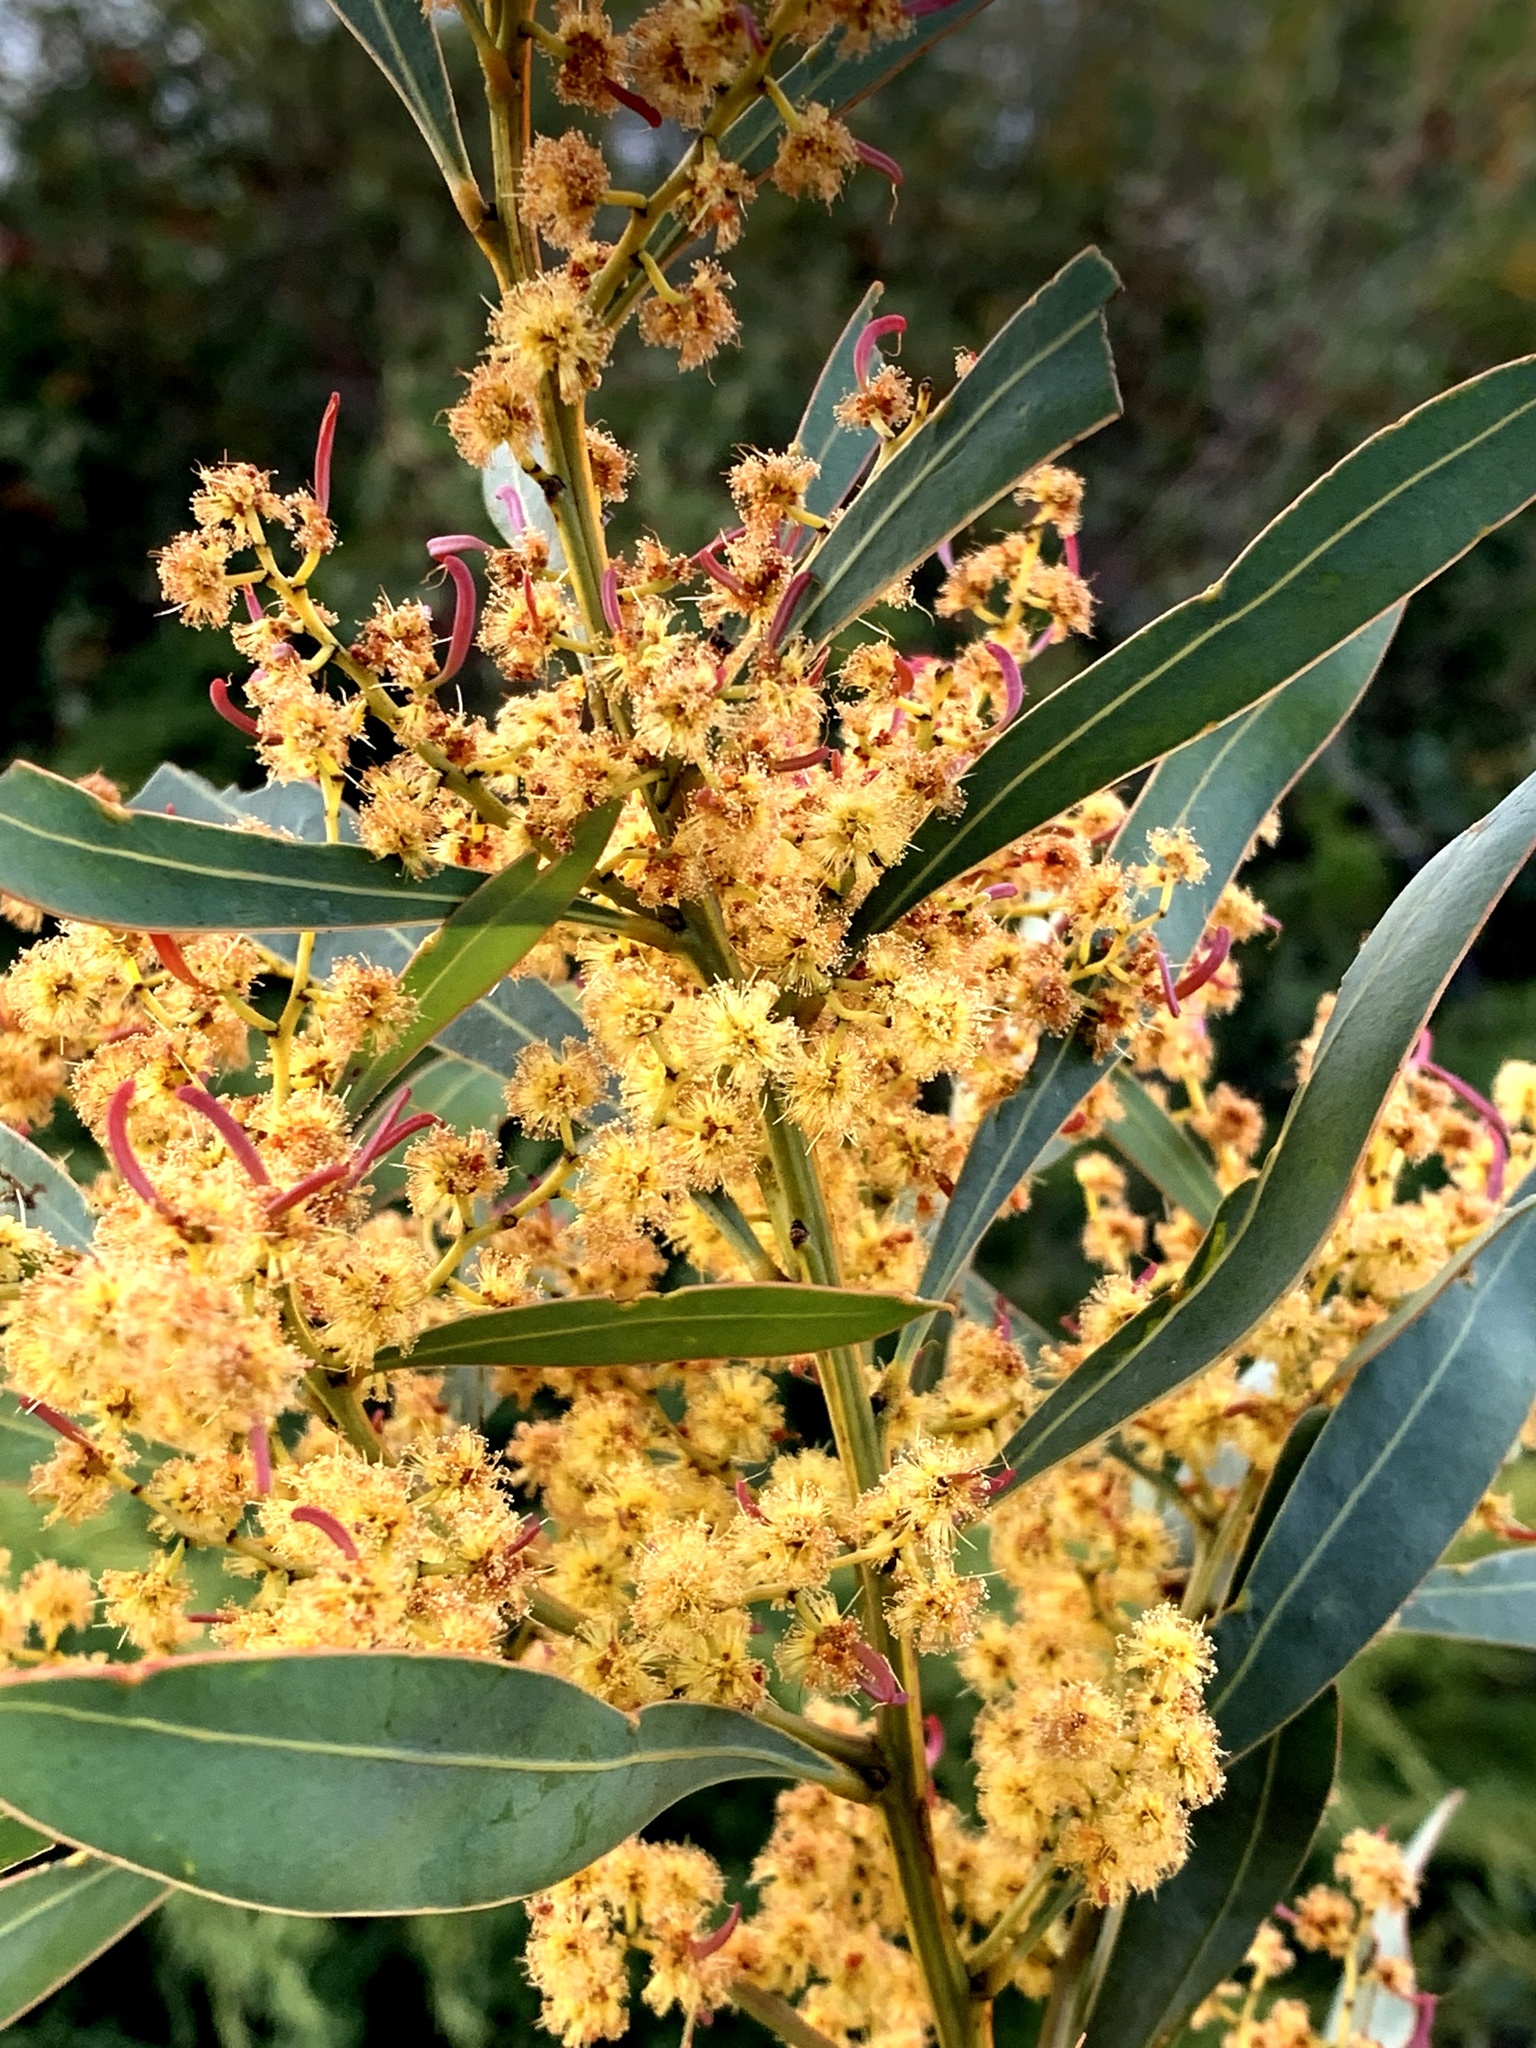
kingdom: Plantae
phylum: Tracheophyta
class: Magnoliopsida
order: Fabales
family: Fabaceae
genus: Acacia
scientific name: Acacia rubida
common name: Red leaf wattle
